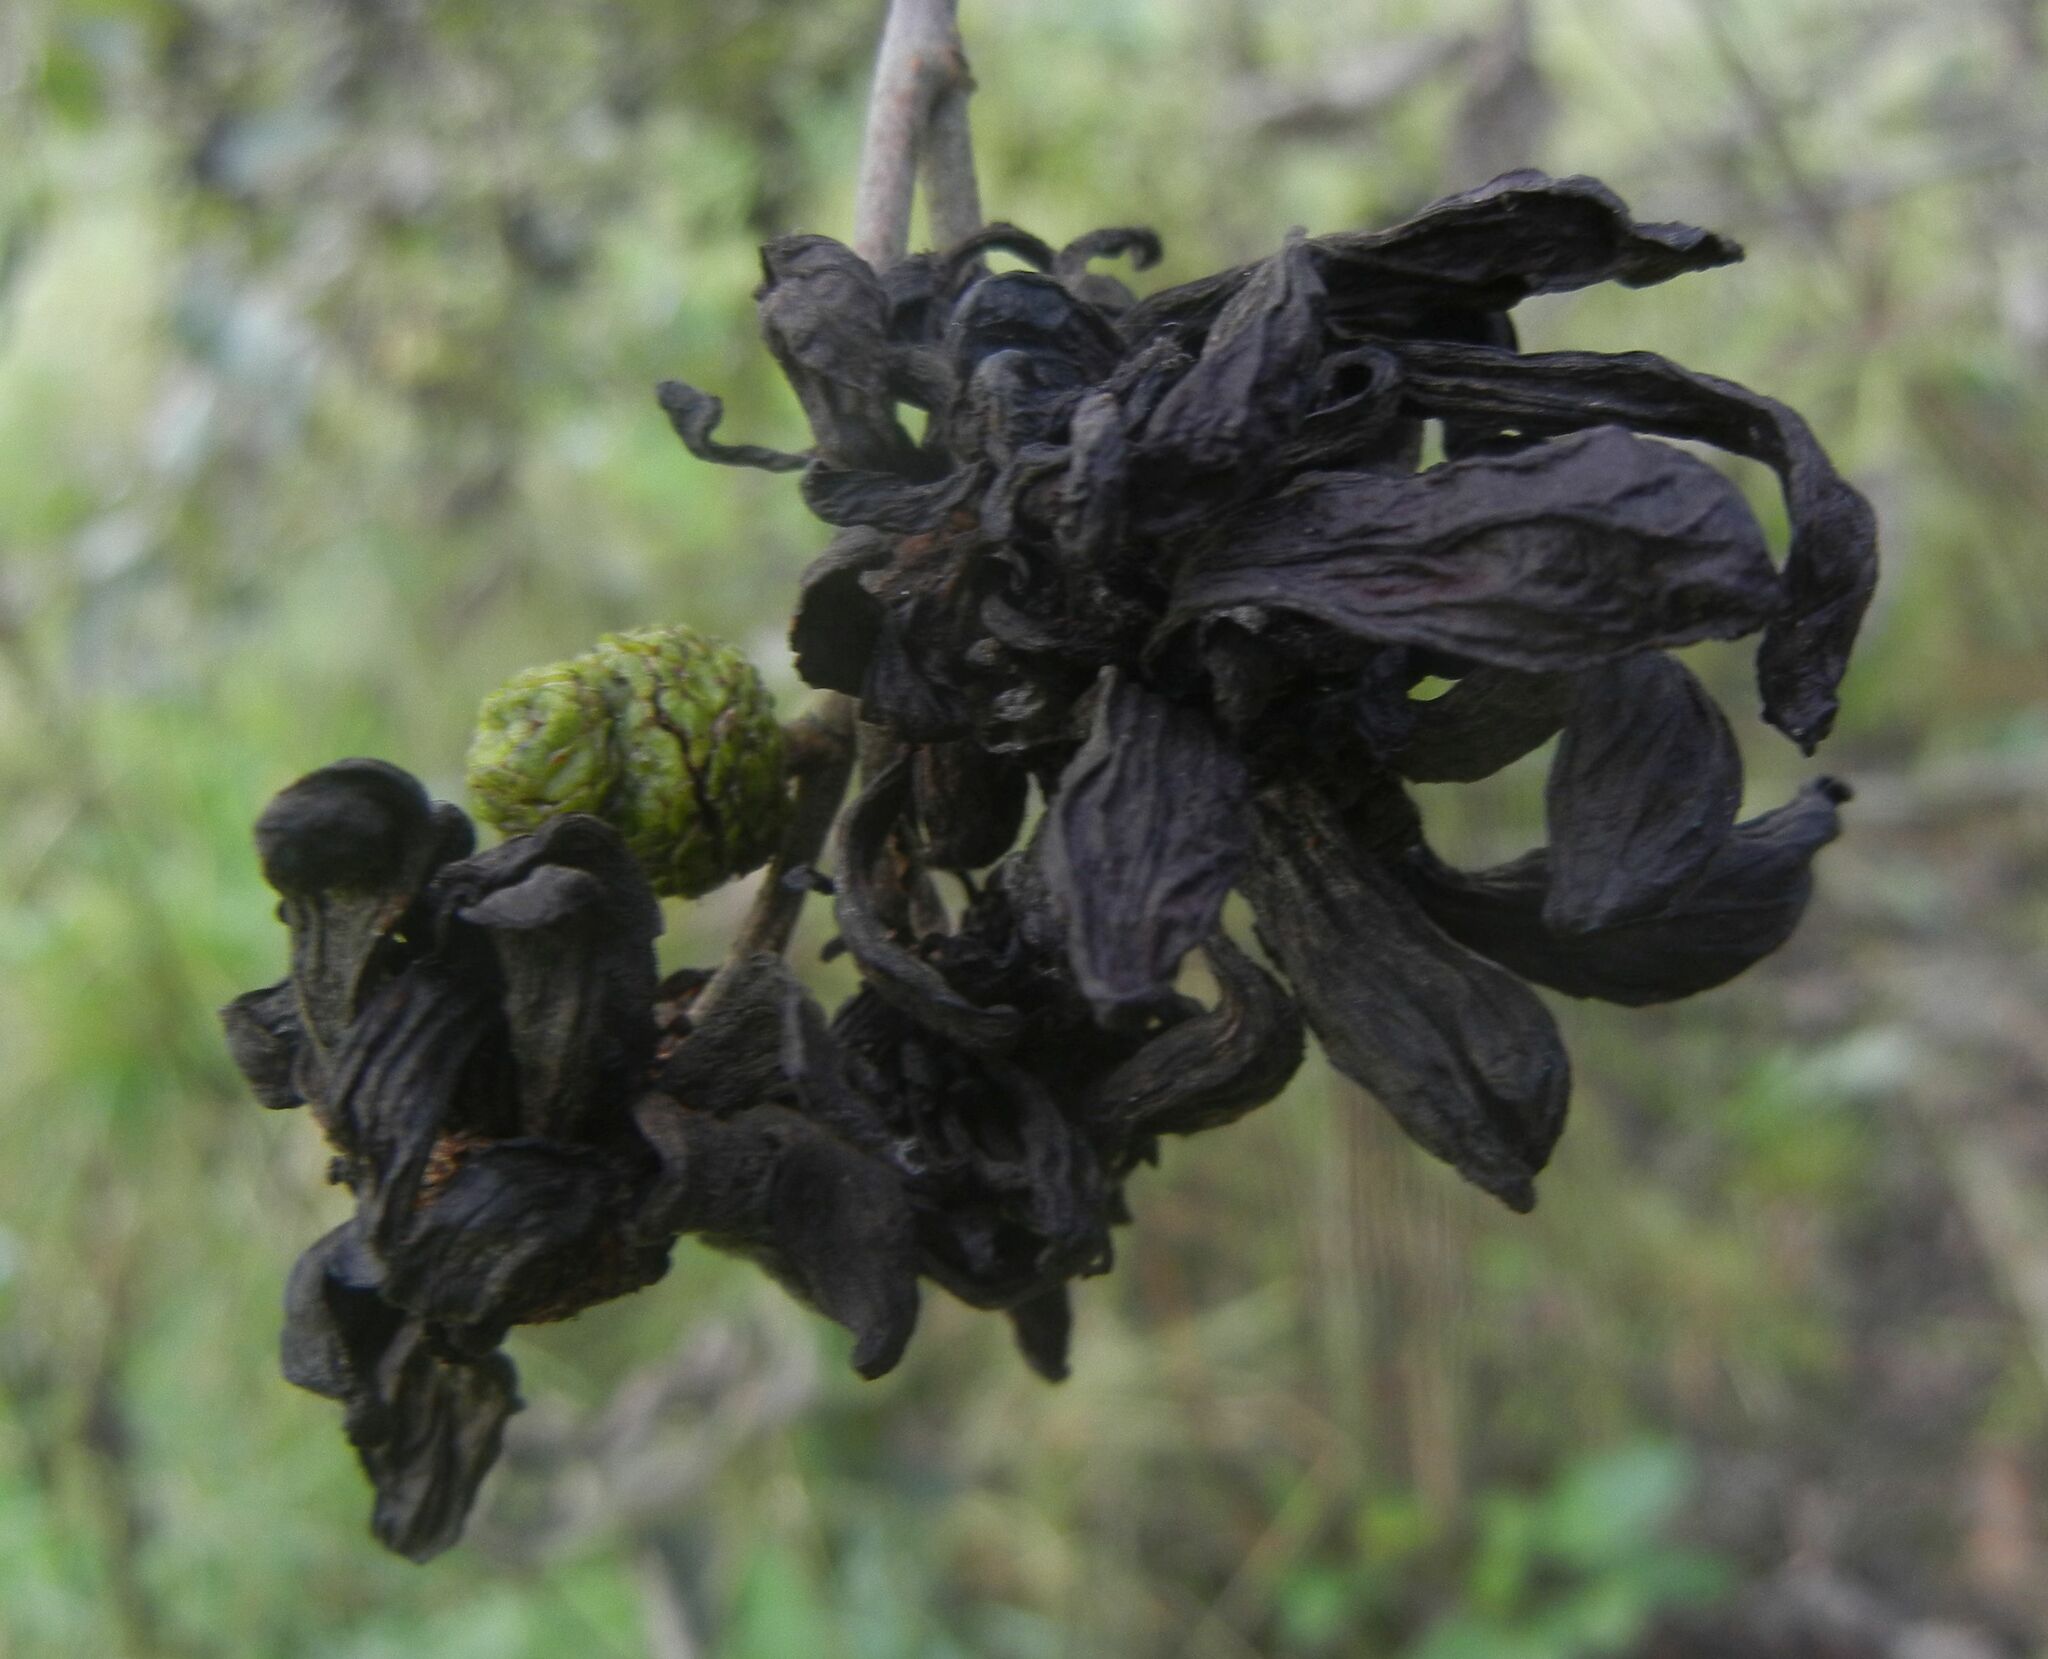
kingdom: Fungi
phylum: Ascomycota
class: Taphrinomycetes
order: Taphrinales
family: Taphrinaceae
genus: Taphrina
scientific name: Taphrina alni
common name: Alder tongue
